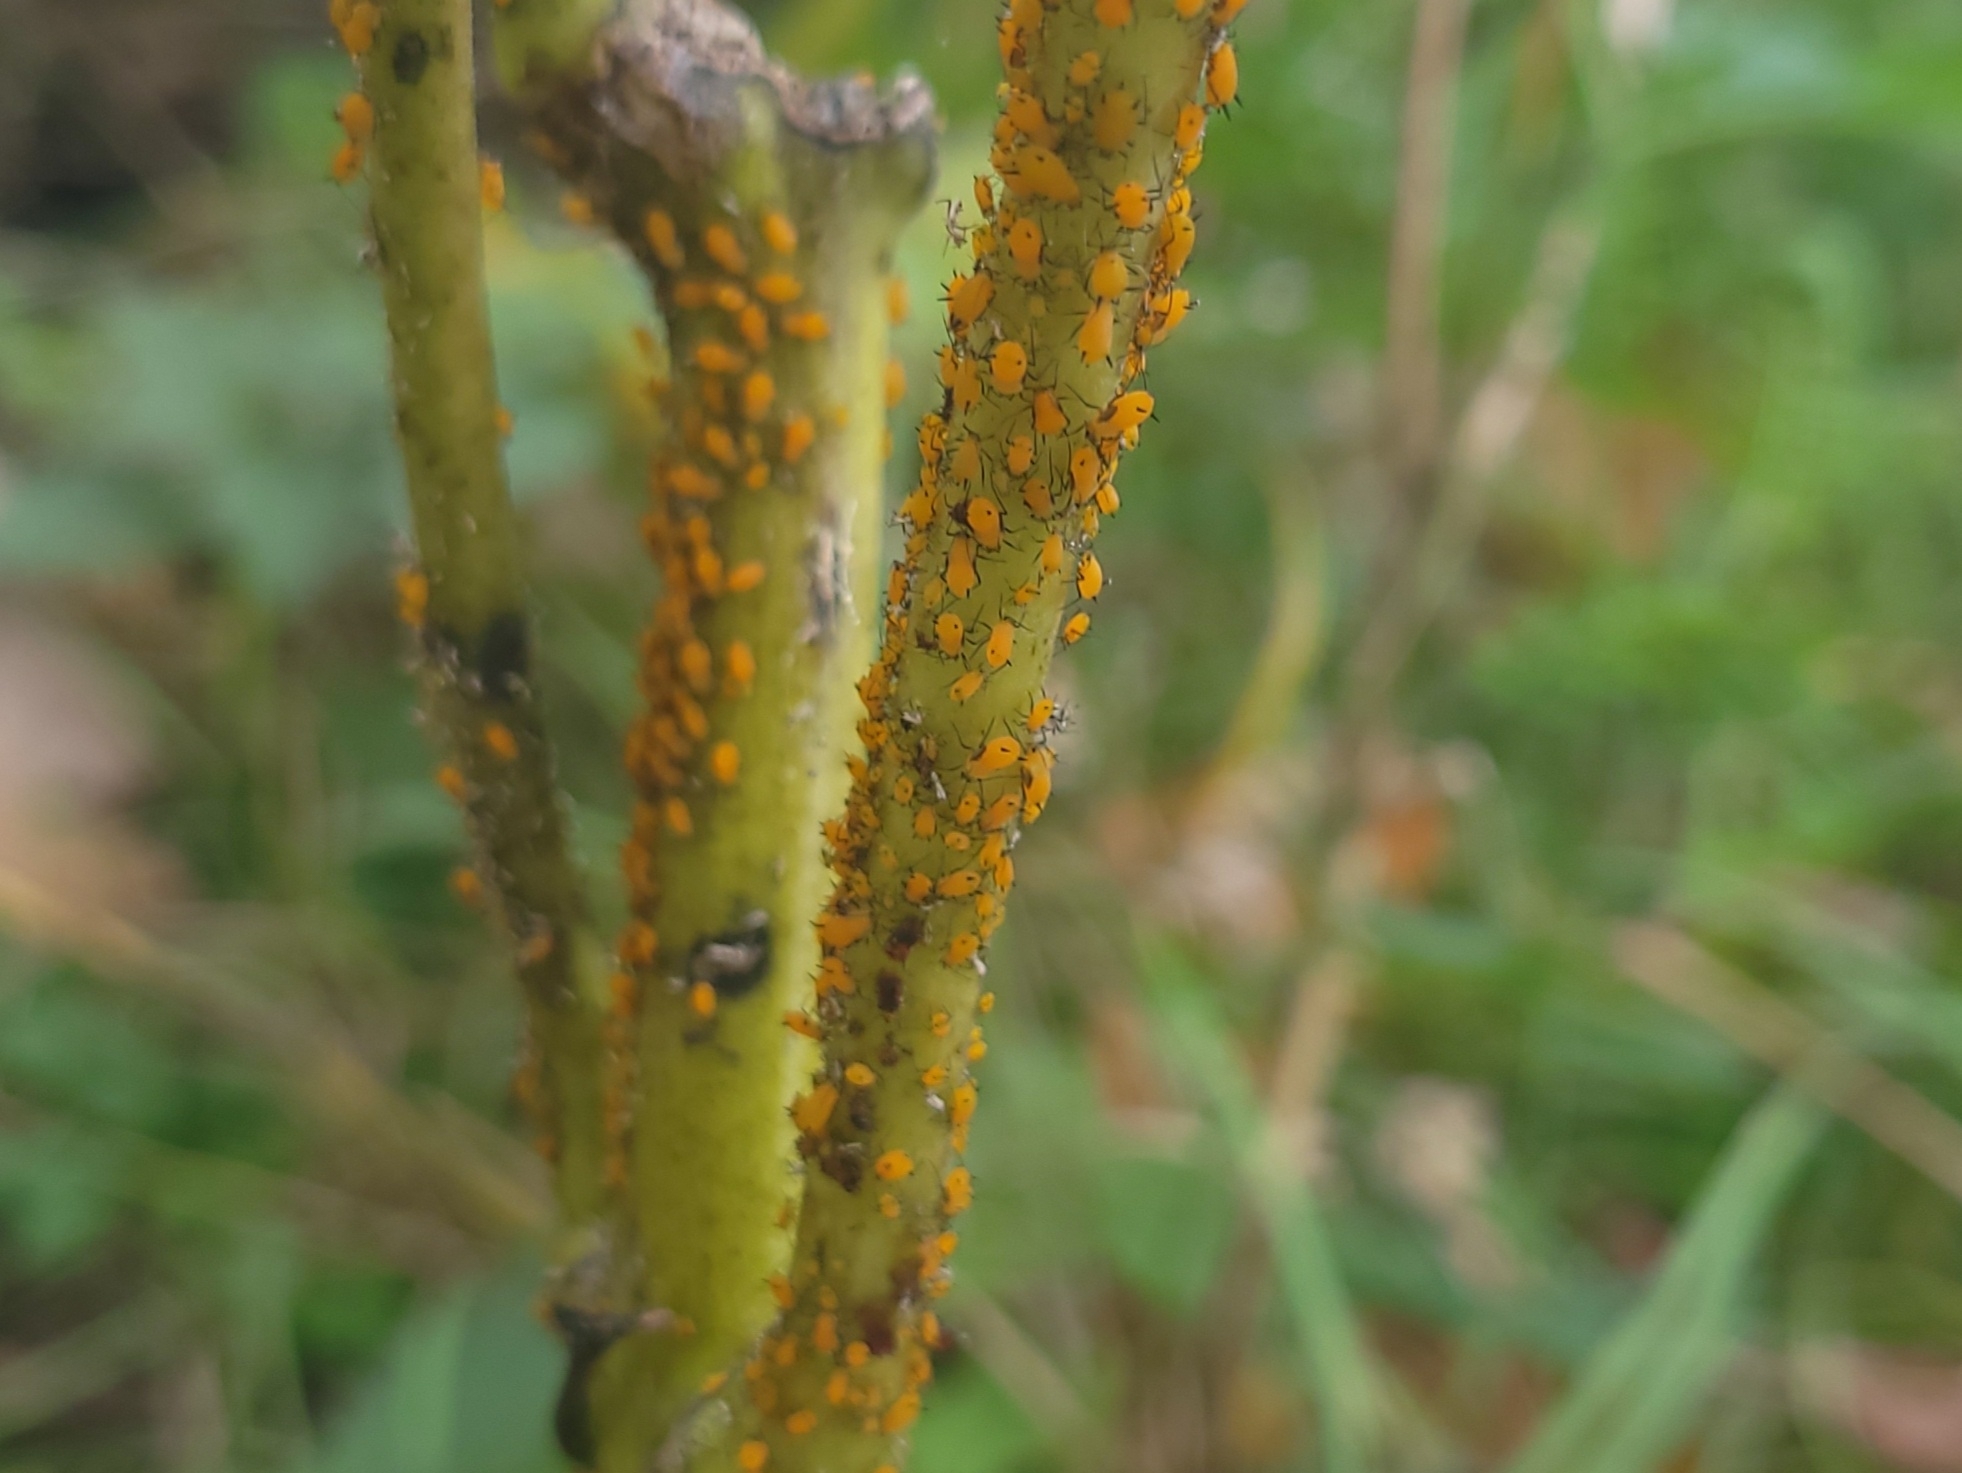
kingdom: Animalia
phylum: Arthropoda
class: Insecta
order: Hemiptera
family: Aphididae
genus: Aphis
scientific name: Aphis nerii
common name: Oleander aphid
